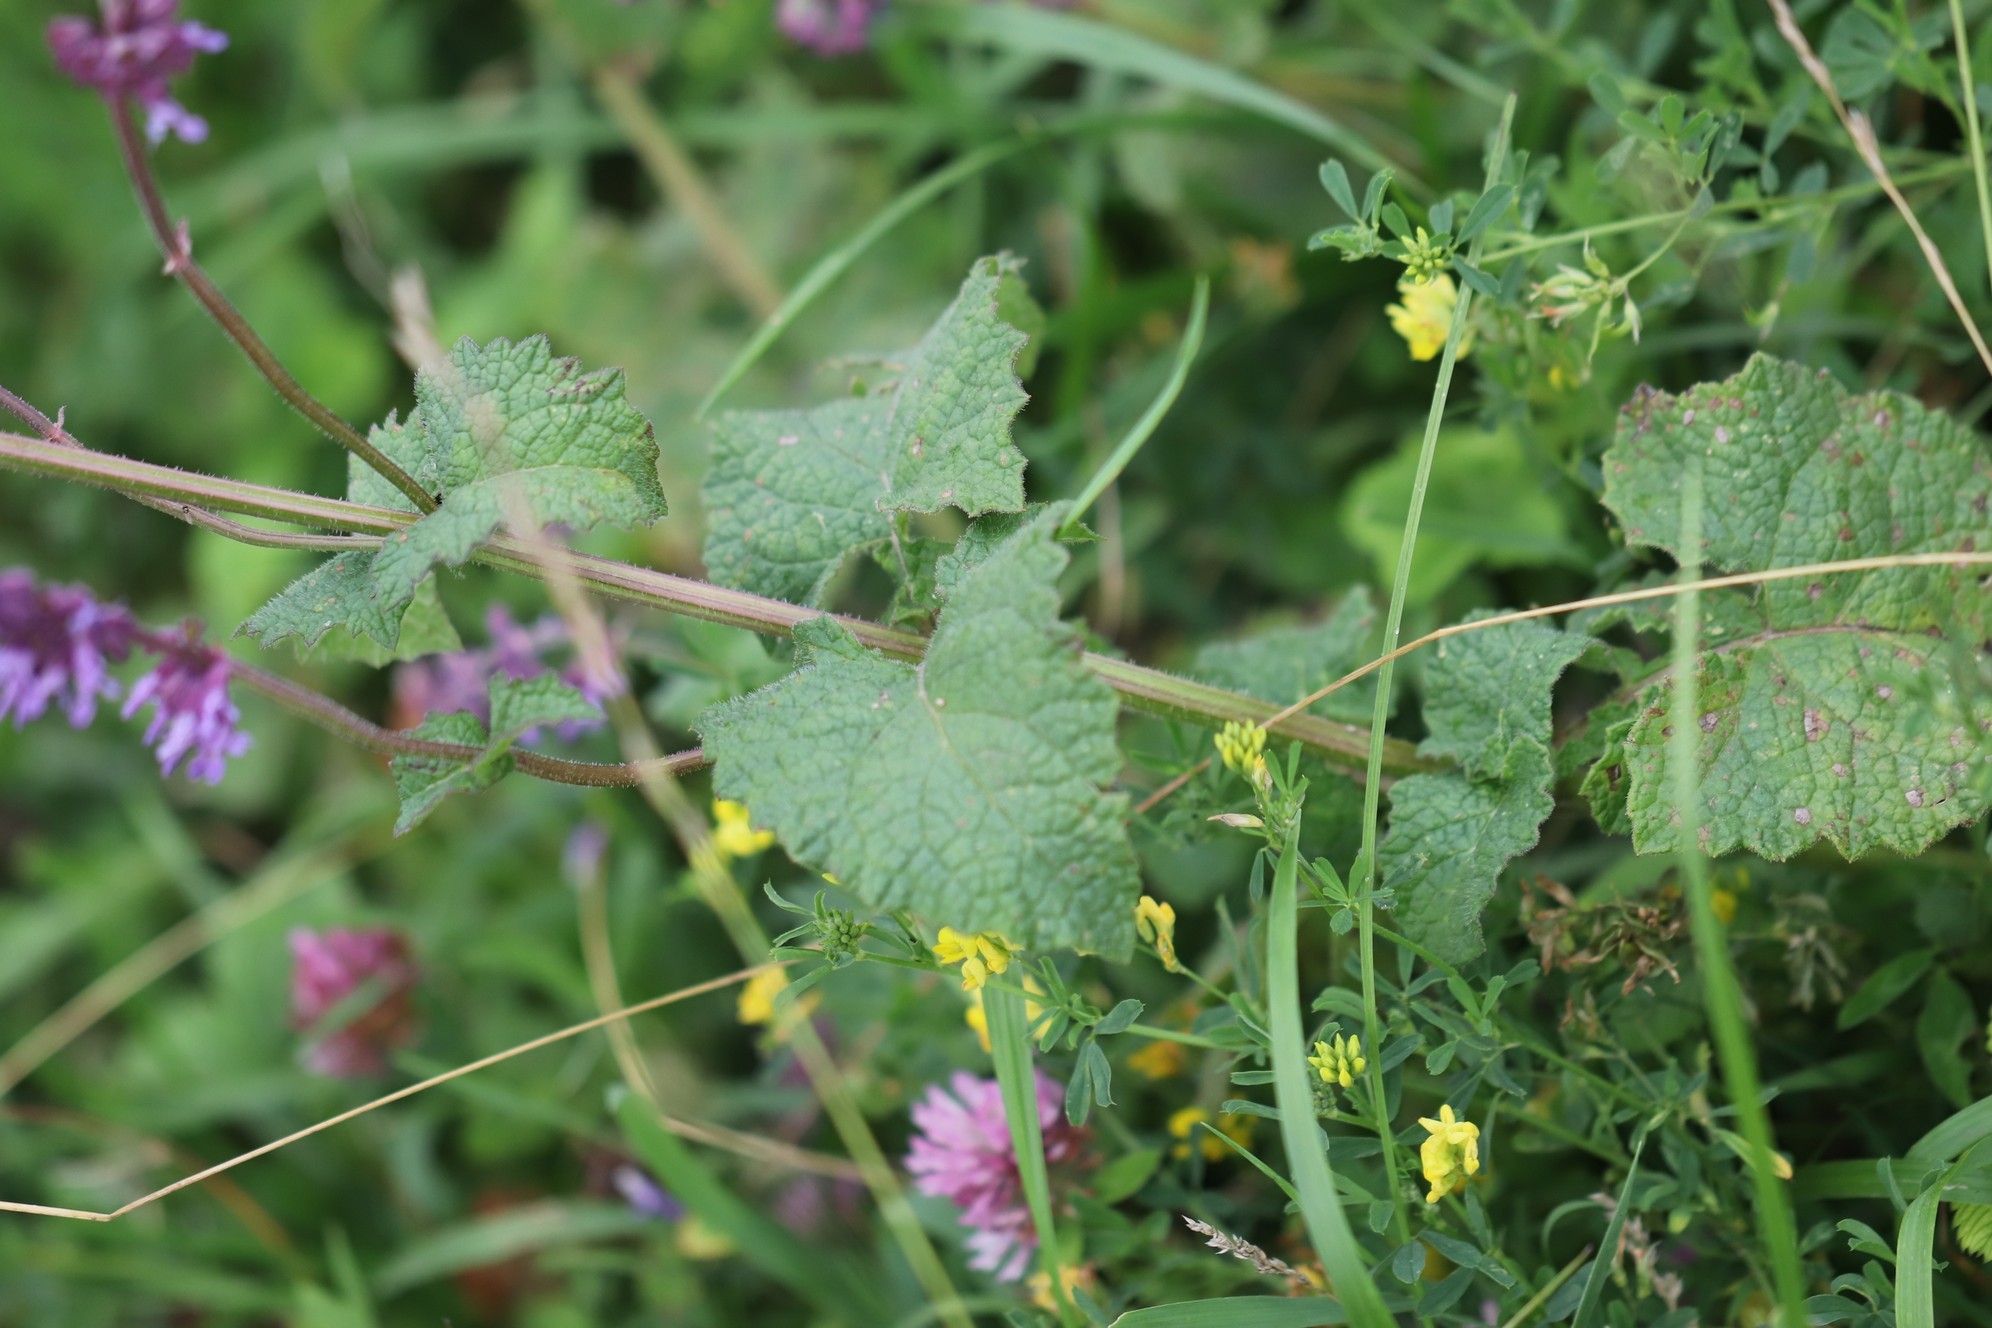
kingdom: Plantae
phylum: Tracheophyta
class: Magnoliopsida
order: Lamiales
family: Lamiaceae
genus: Salvia
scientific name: Salvia verticillata
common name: Whorled clary
